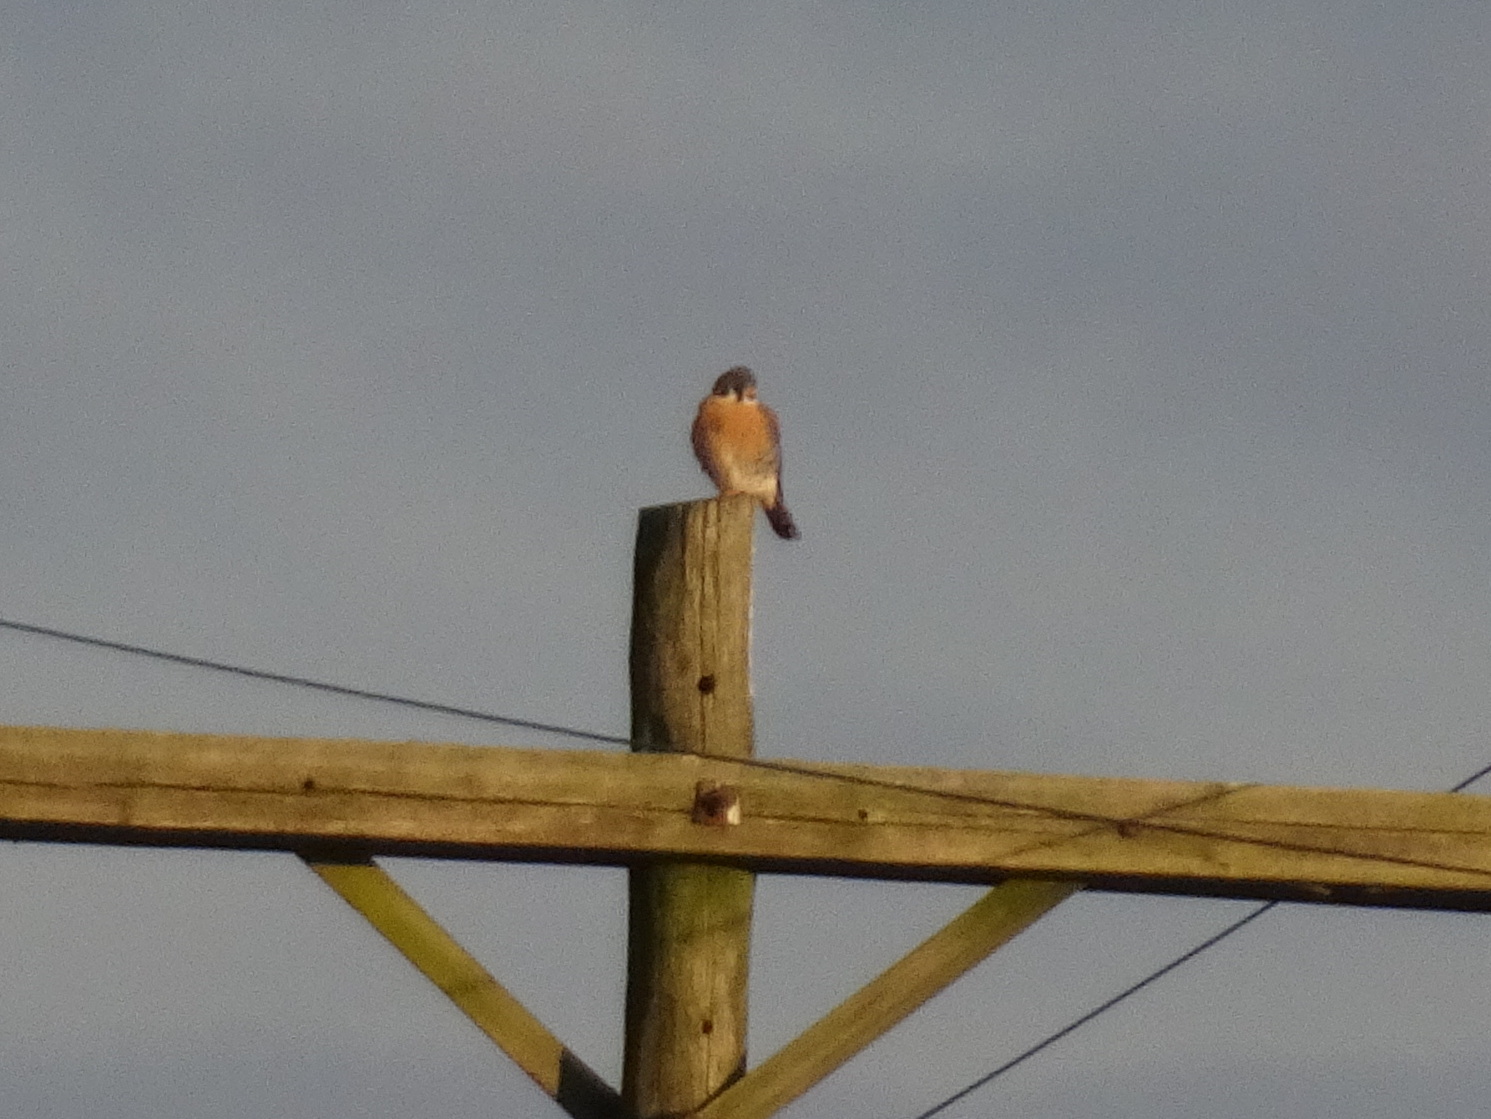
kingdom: Animalia
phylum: Chordata
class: Aves
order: Falconiformes
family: Falconidae
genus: Falco
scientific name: Falco sparverius
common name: American kestrel
